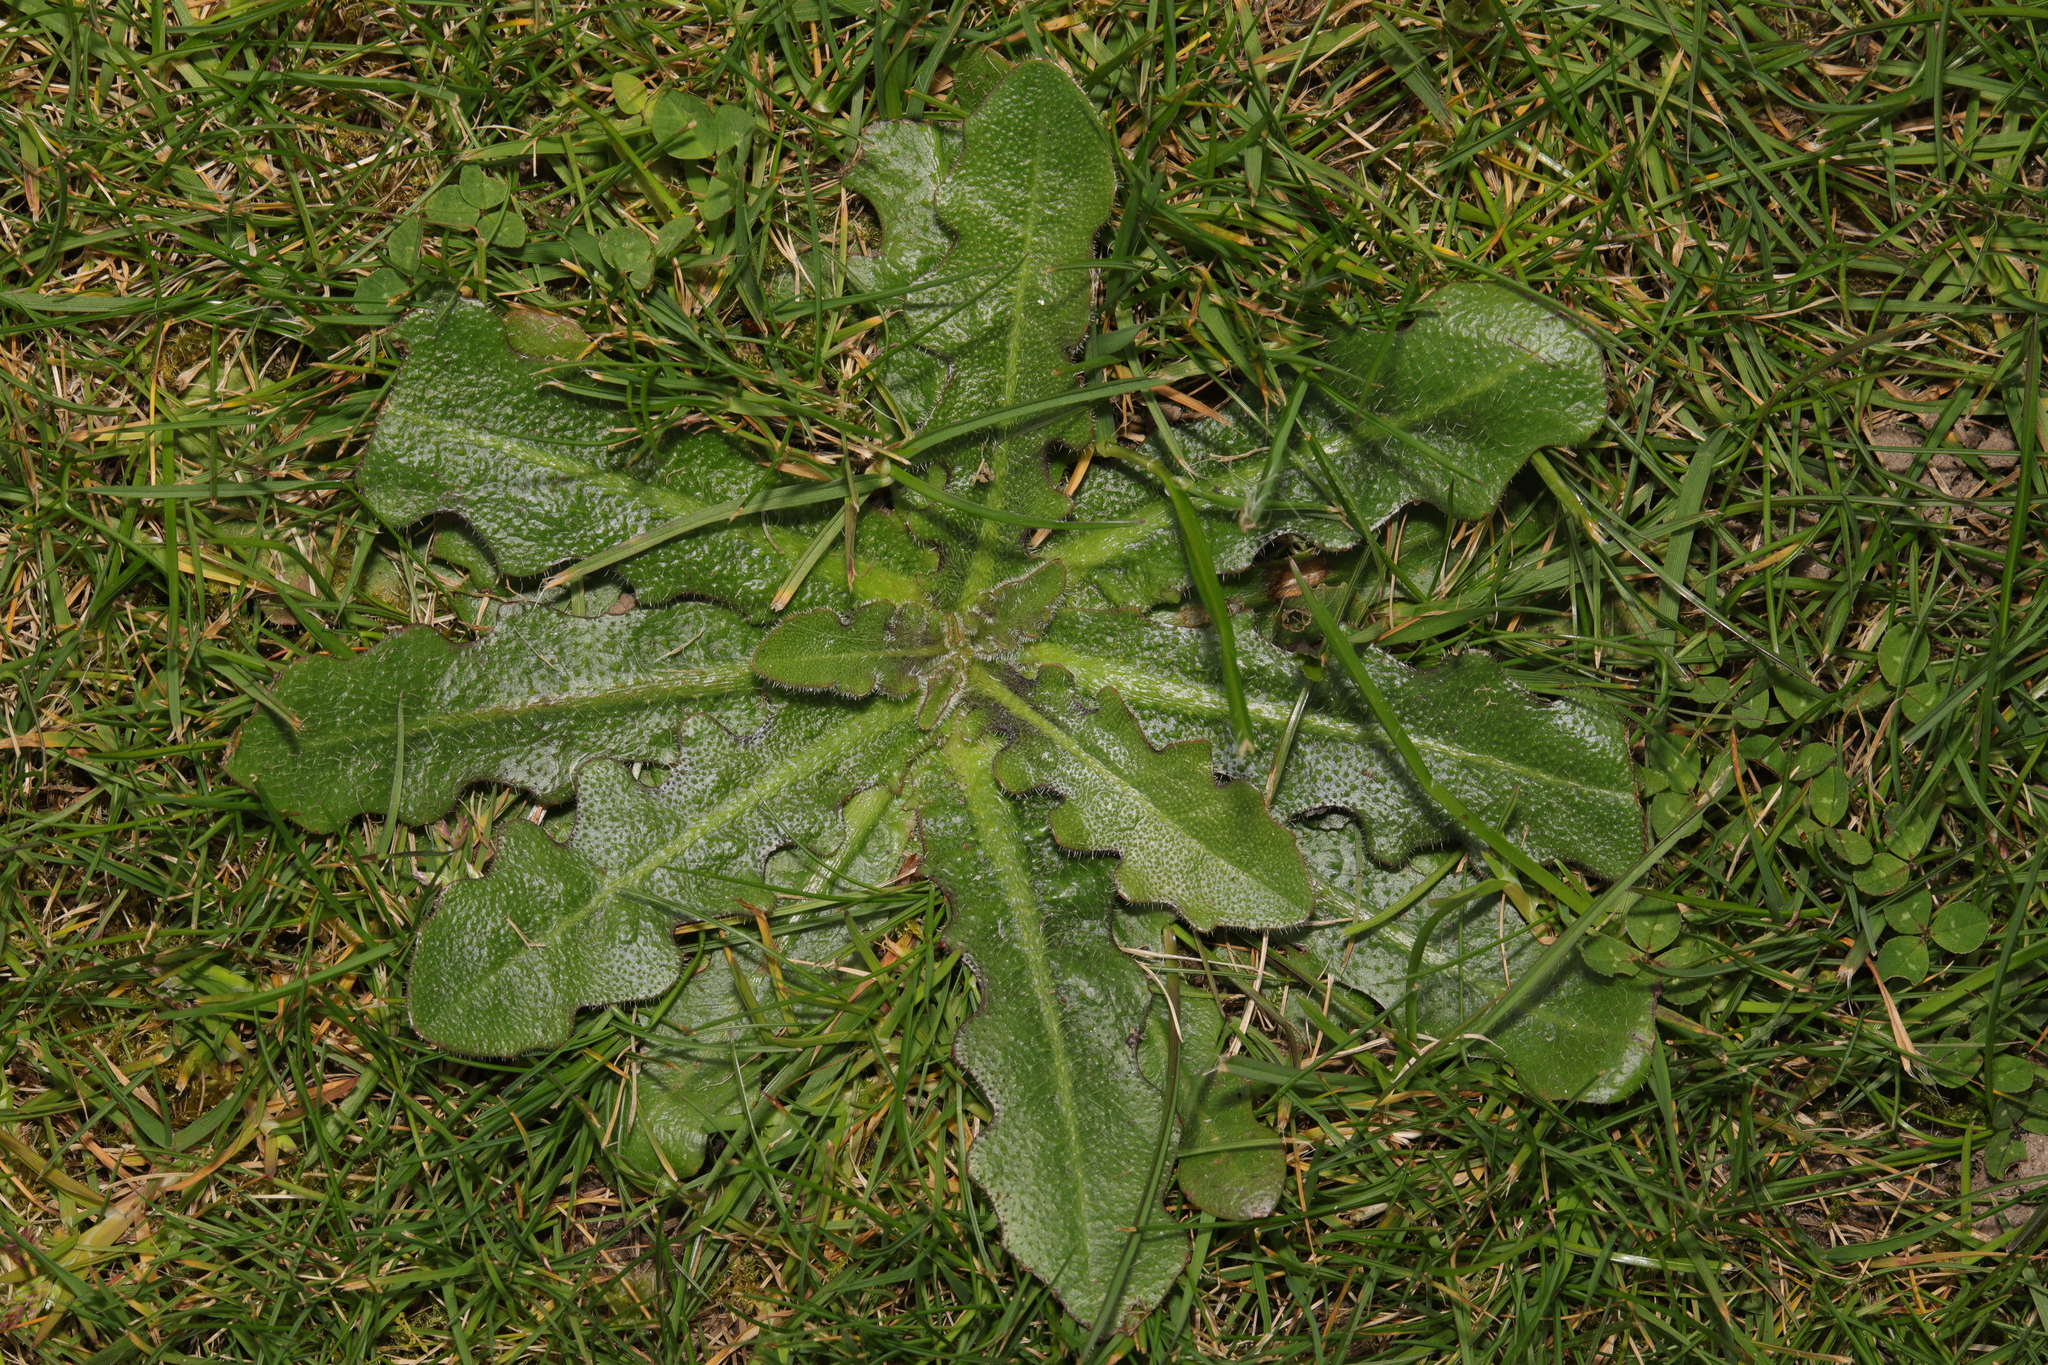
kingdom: Plantae
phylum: Tracheophyta
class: Magnoliopsida
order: Asterales
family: Asteraceae
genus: Hypochaeris
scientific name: Hypochaeris radicata
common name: Flatweed
